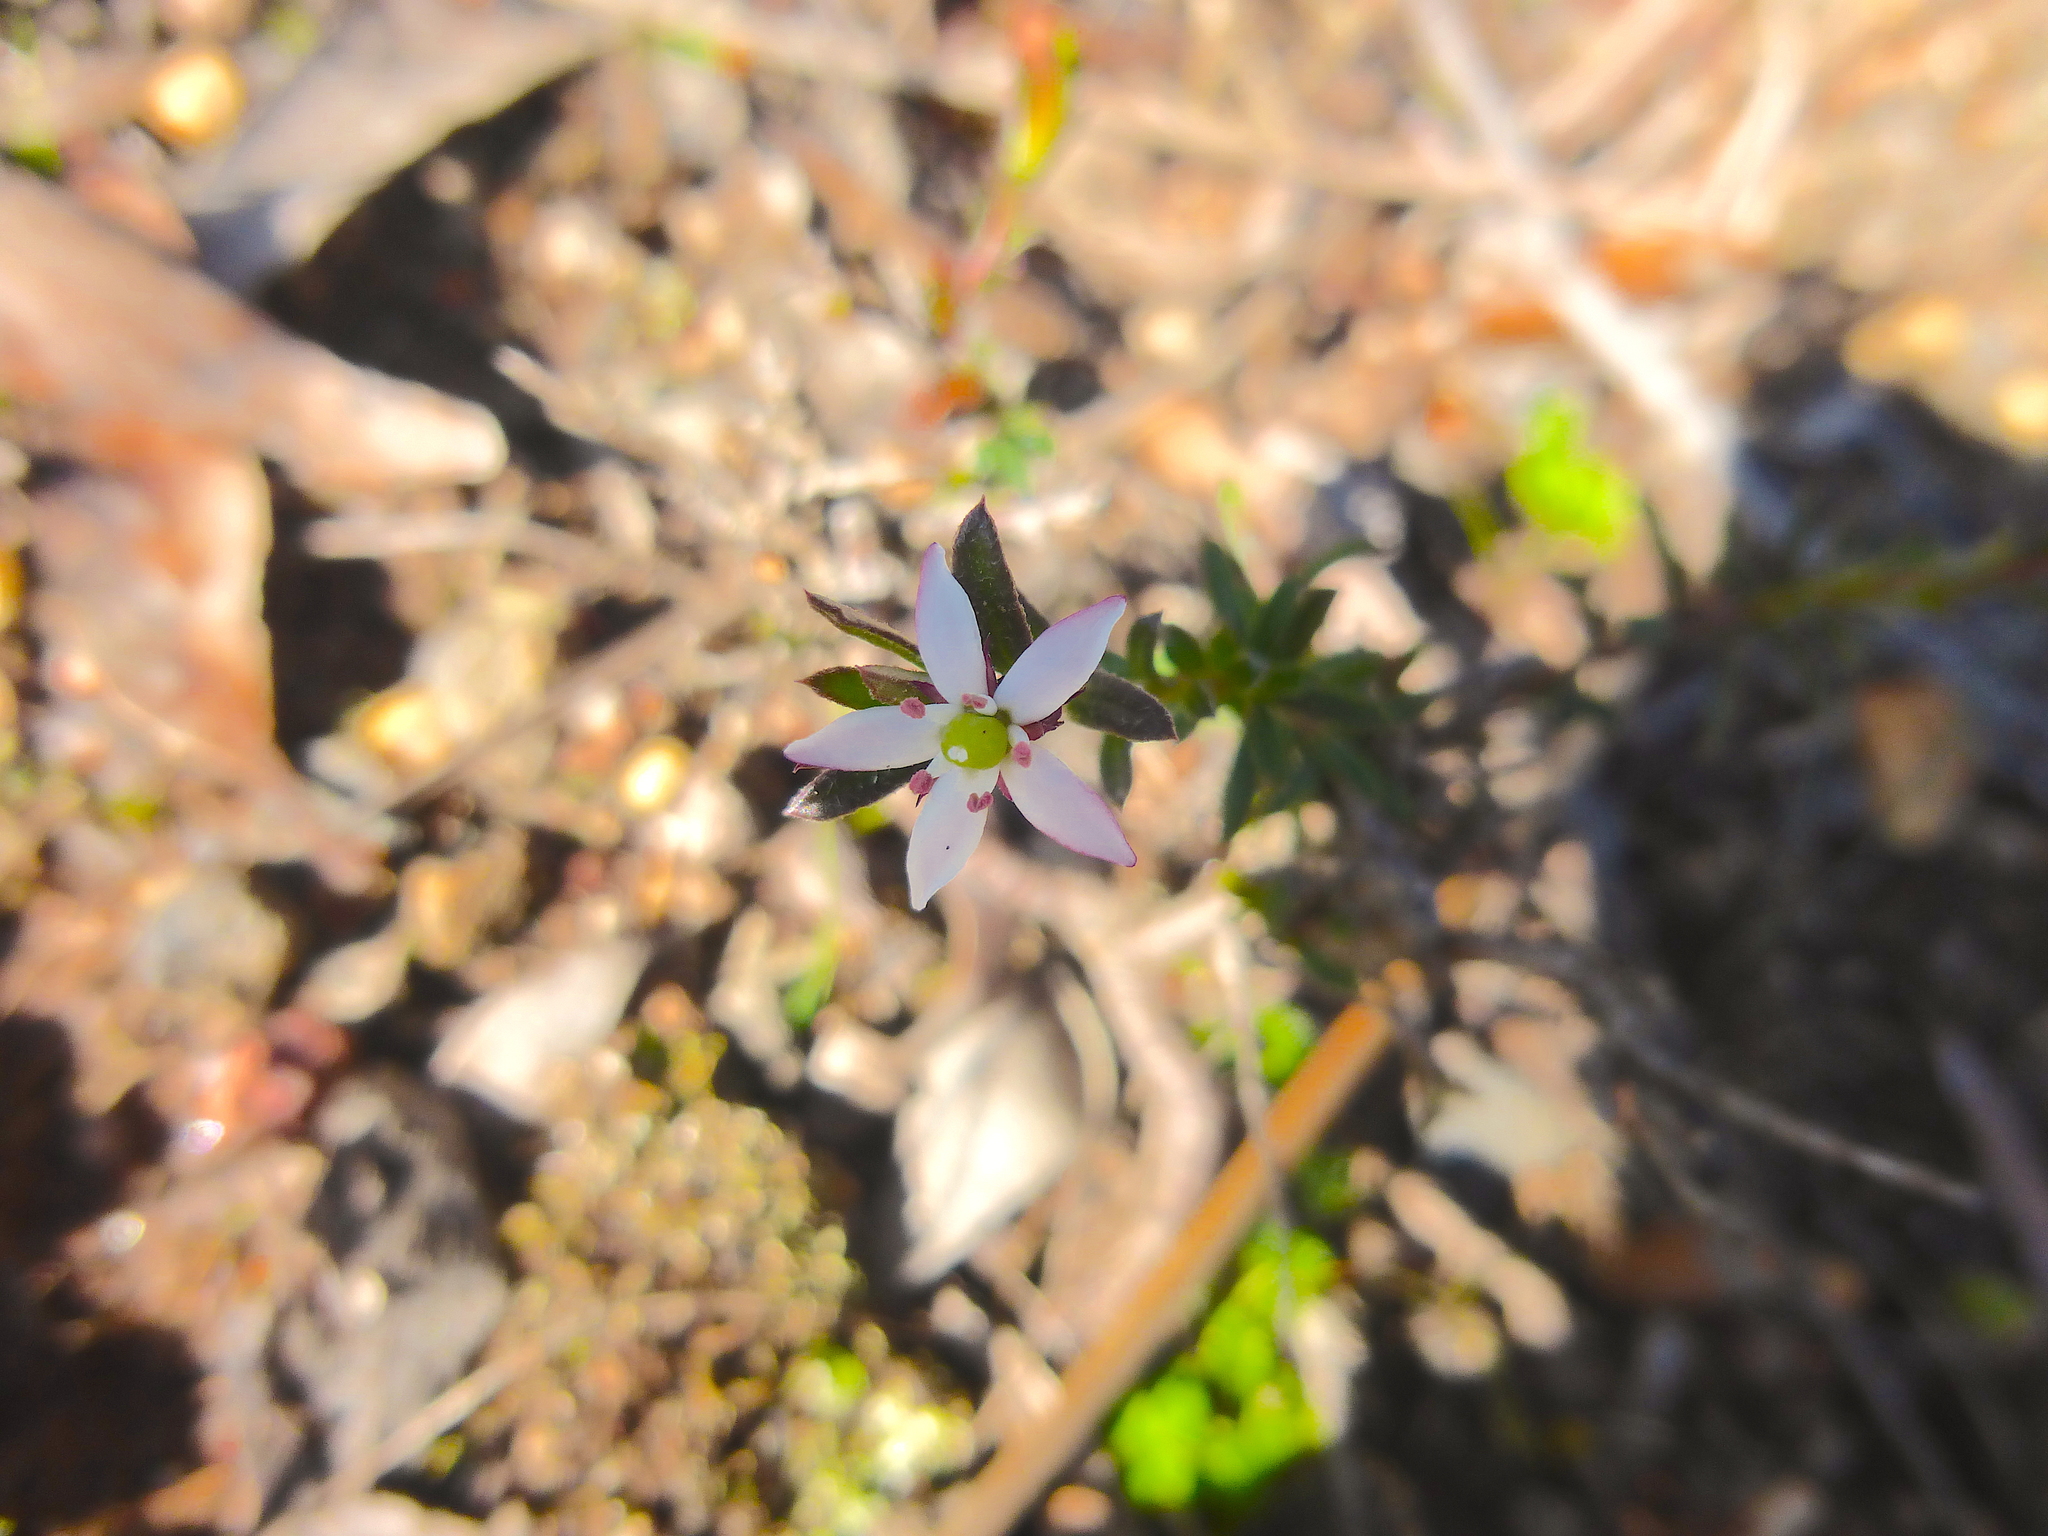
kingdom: Plantae
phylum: Tracheophyta
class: Magnoliopsida
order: Apiales
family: Pittosporaceae
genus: Rhytidosporum
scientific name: Rhytidosporum procumbens
